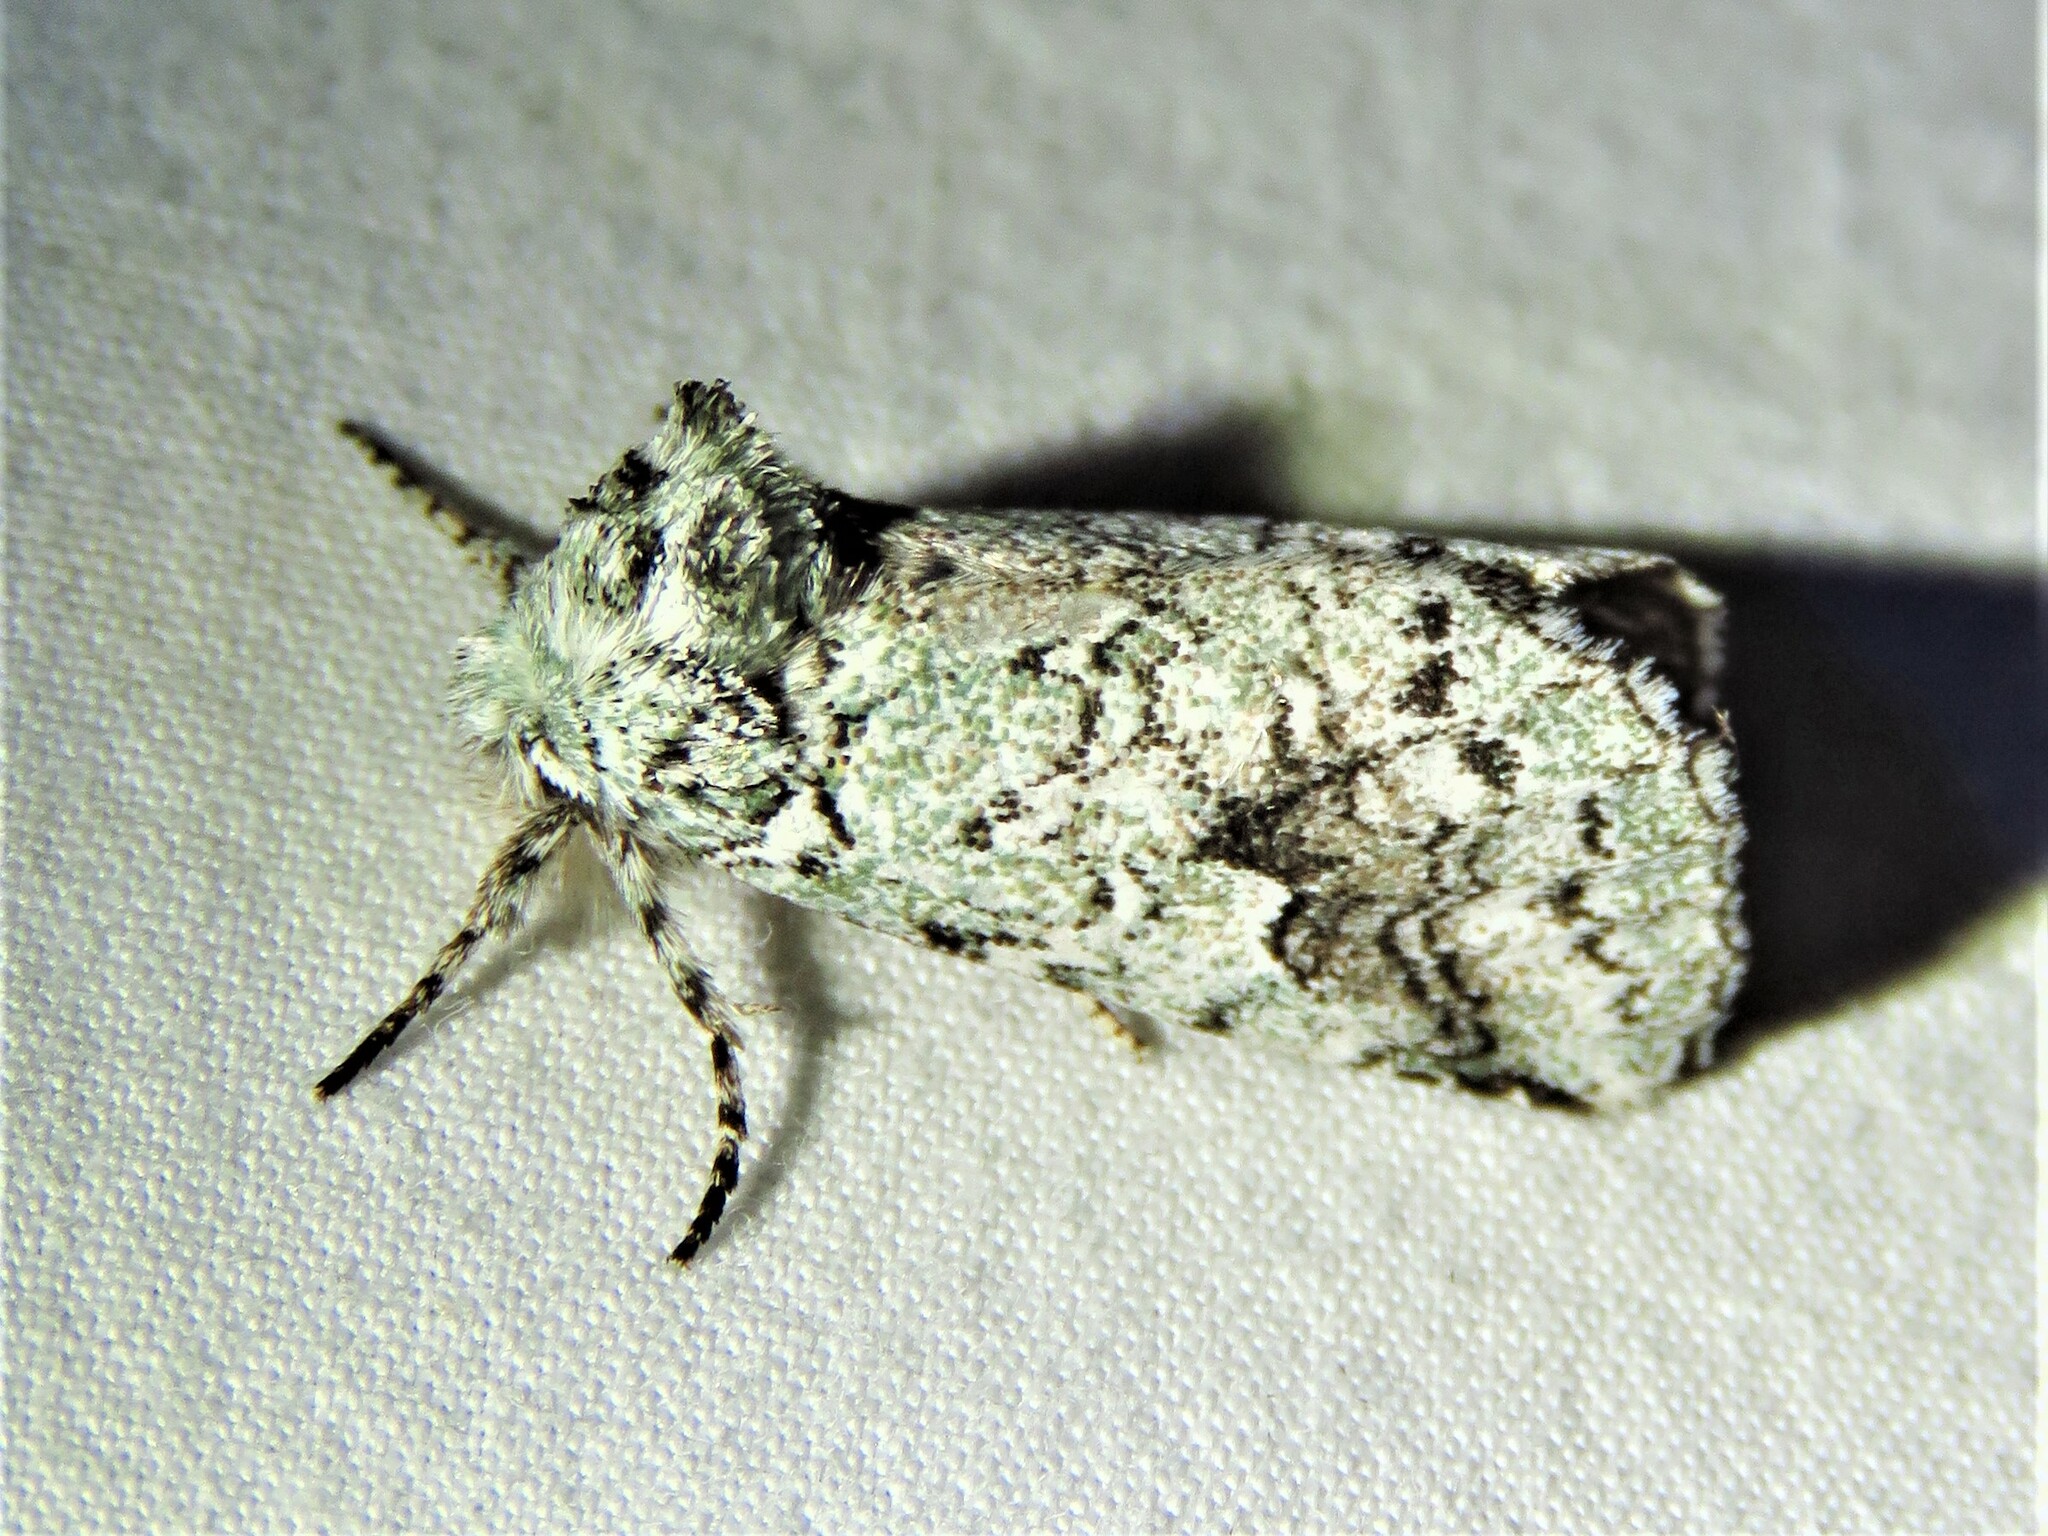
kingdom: Animalia
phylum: Arthropoda
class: Insecta
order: Lepidoptera
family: Notodontidae
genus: Litodonta
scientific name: Litodonta hydromeli
